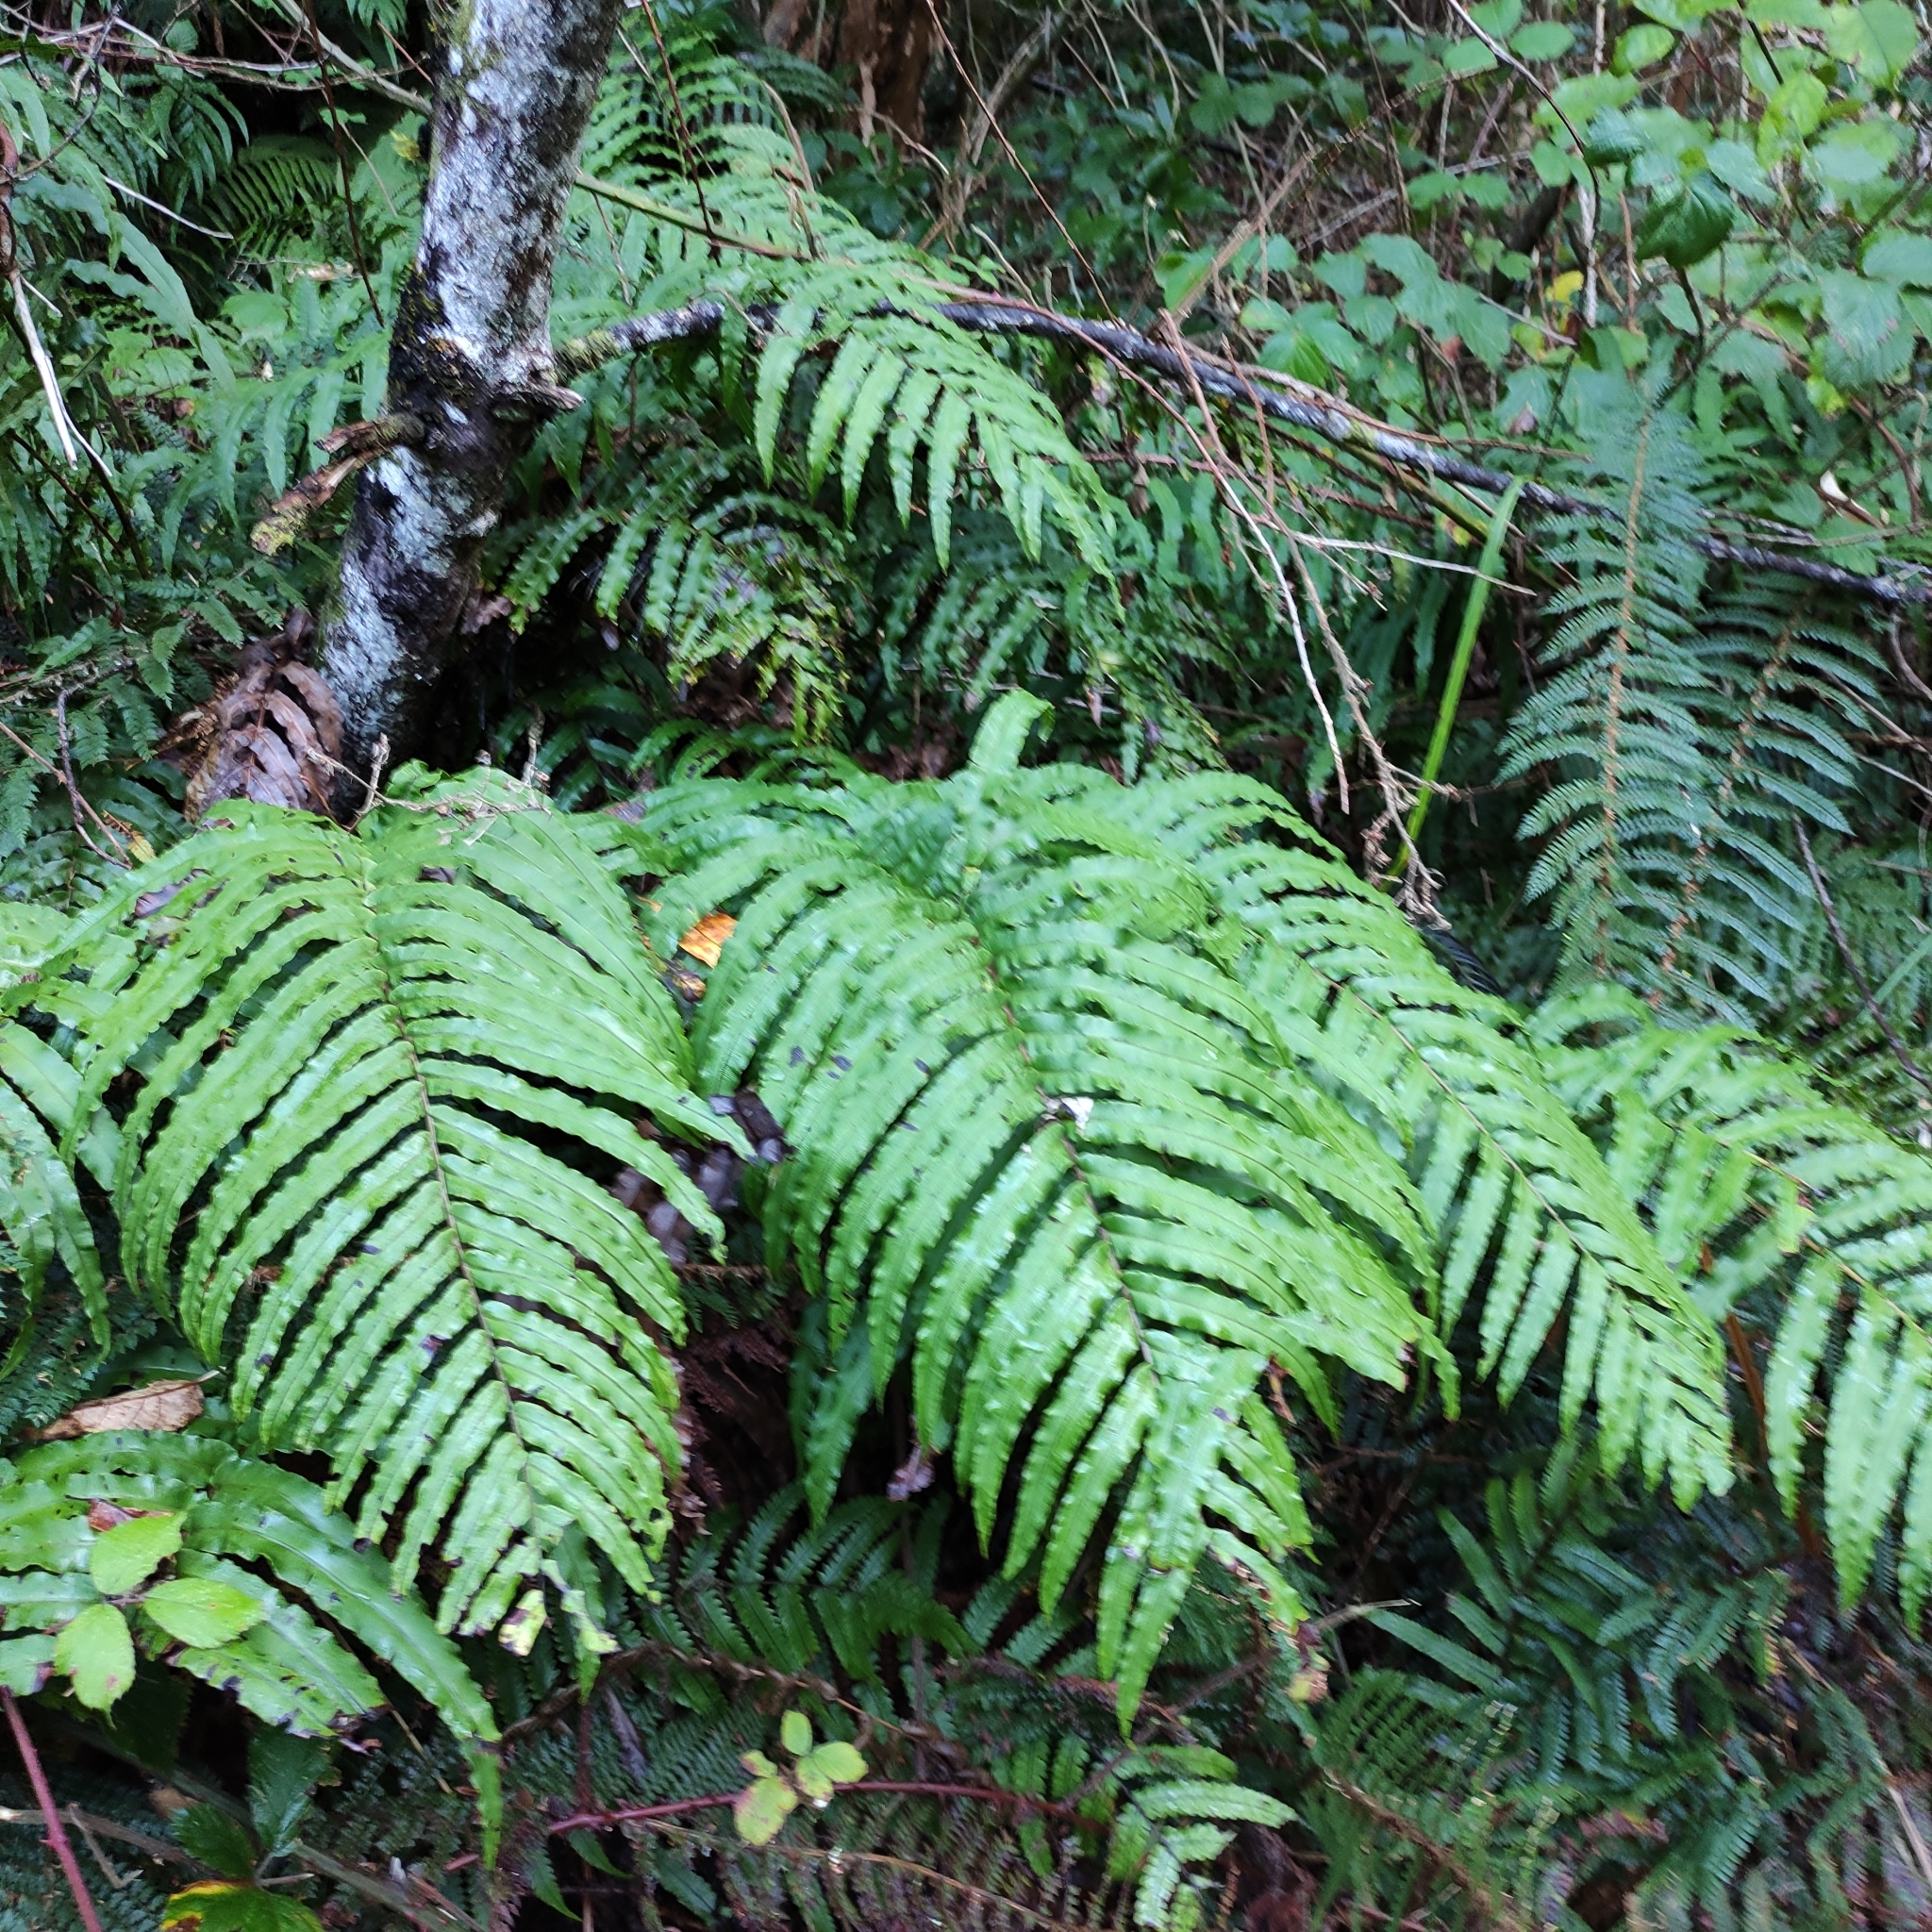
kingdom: Plantae
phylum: Tracheophyta
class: Polypodiopsida
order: Polypodiales
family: Blechnaceae
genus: Parablechnum
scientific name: Parablechnum novae-zelandiae
